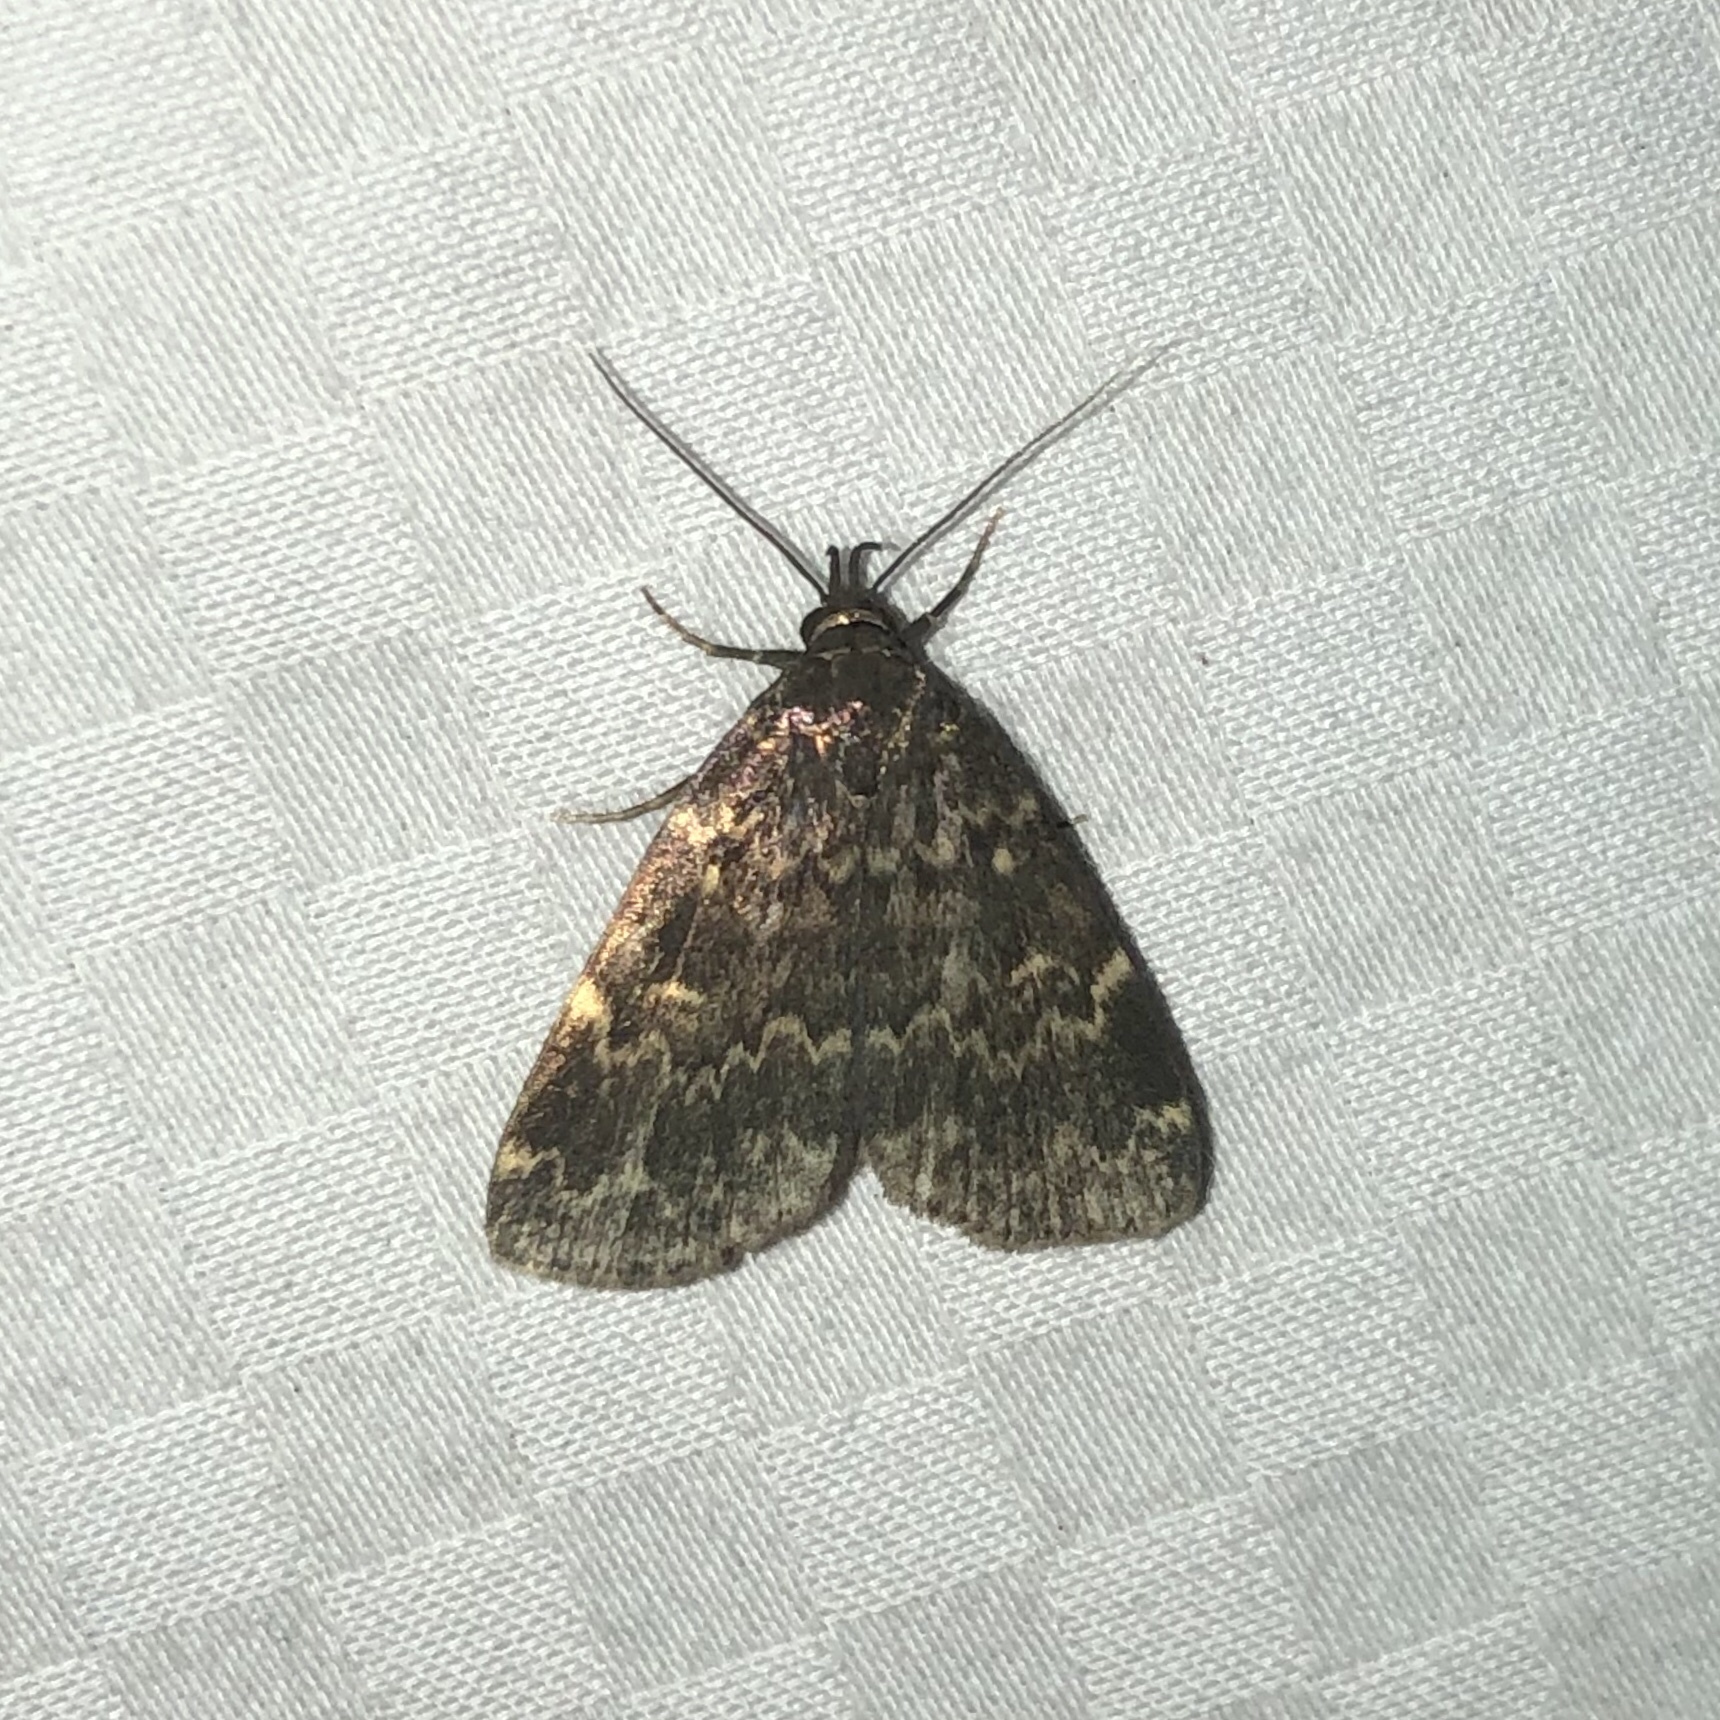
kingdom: Animalia
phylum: Arthropoda
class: Insecta
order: Lepidoptera
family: Erebidae
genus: Idia
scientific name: Idia lubricalis
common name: Twin-striped tabby
